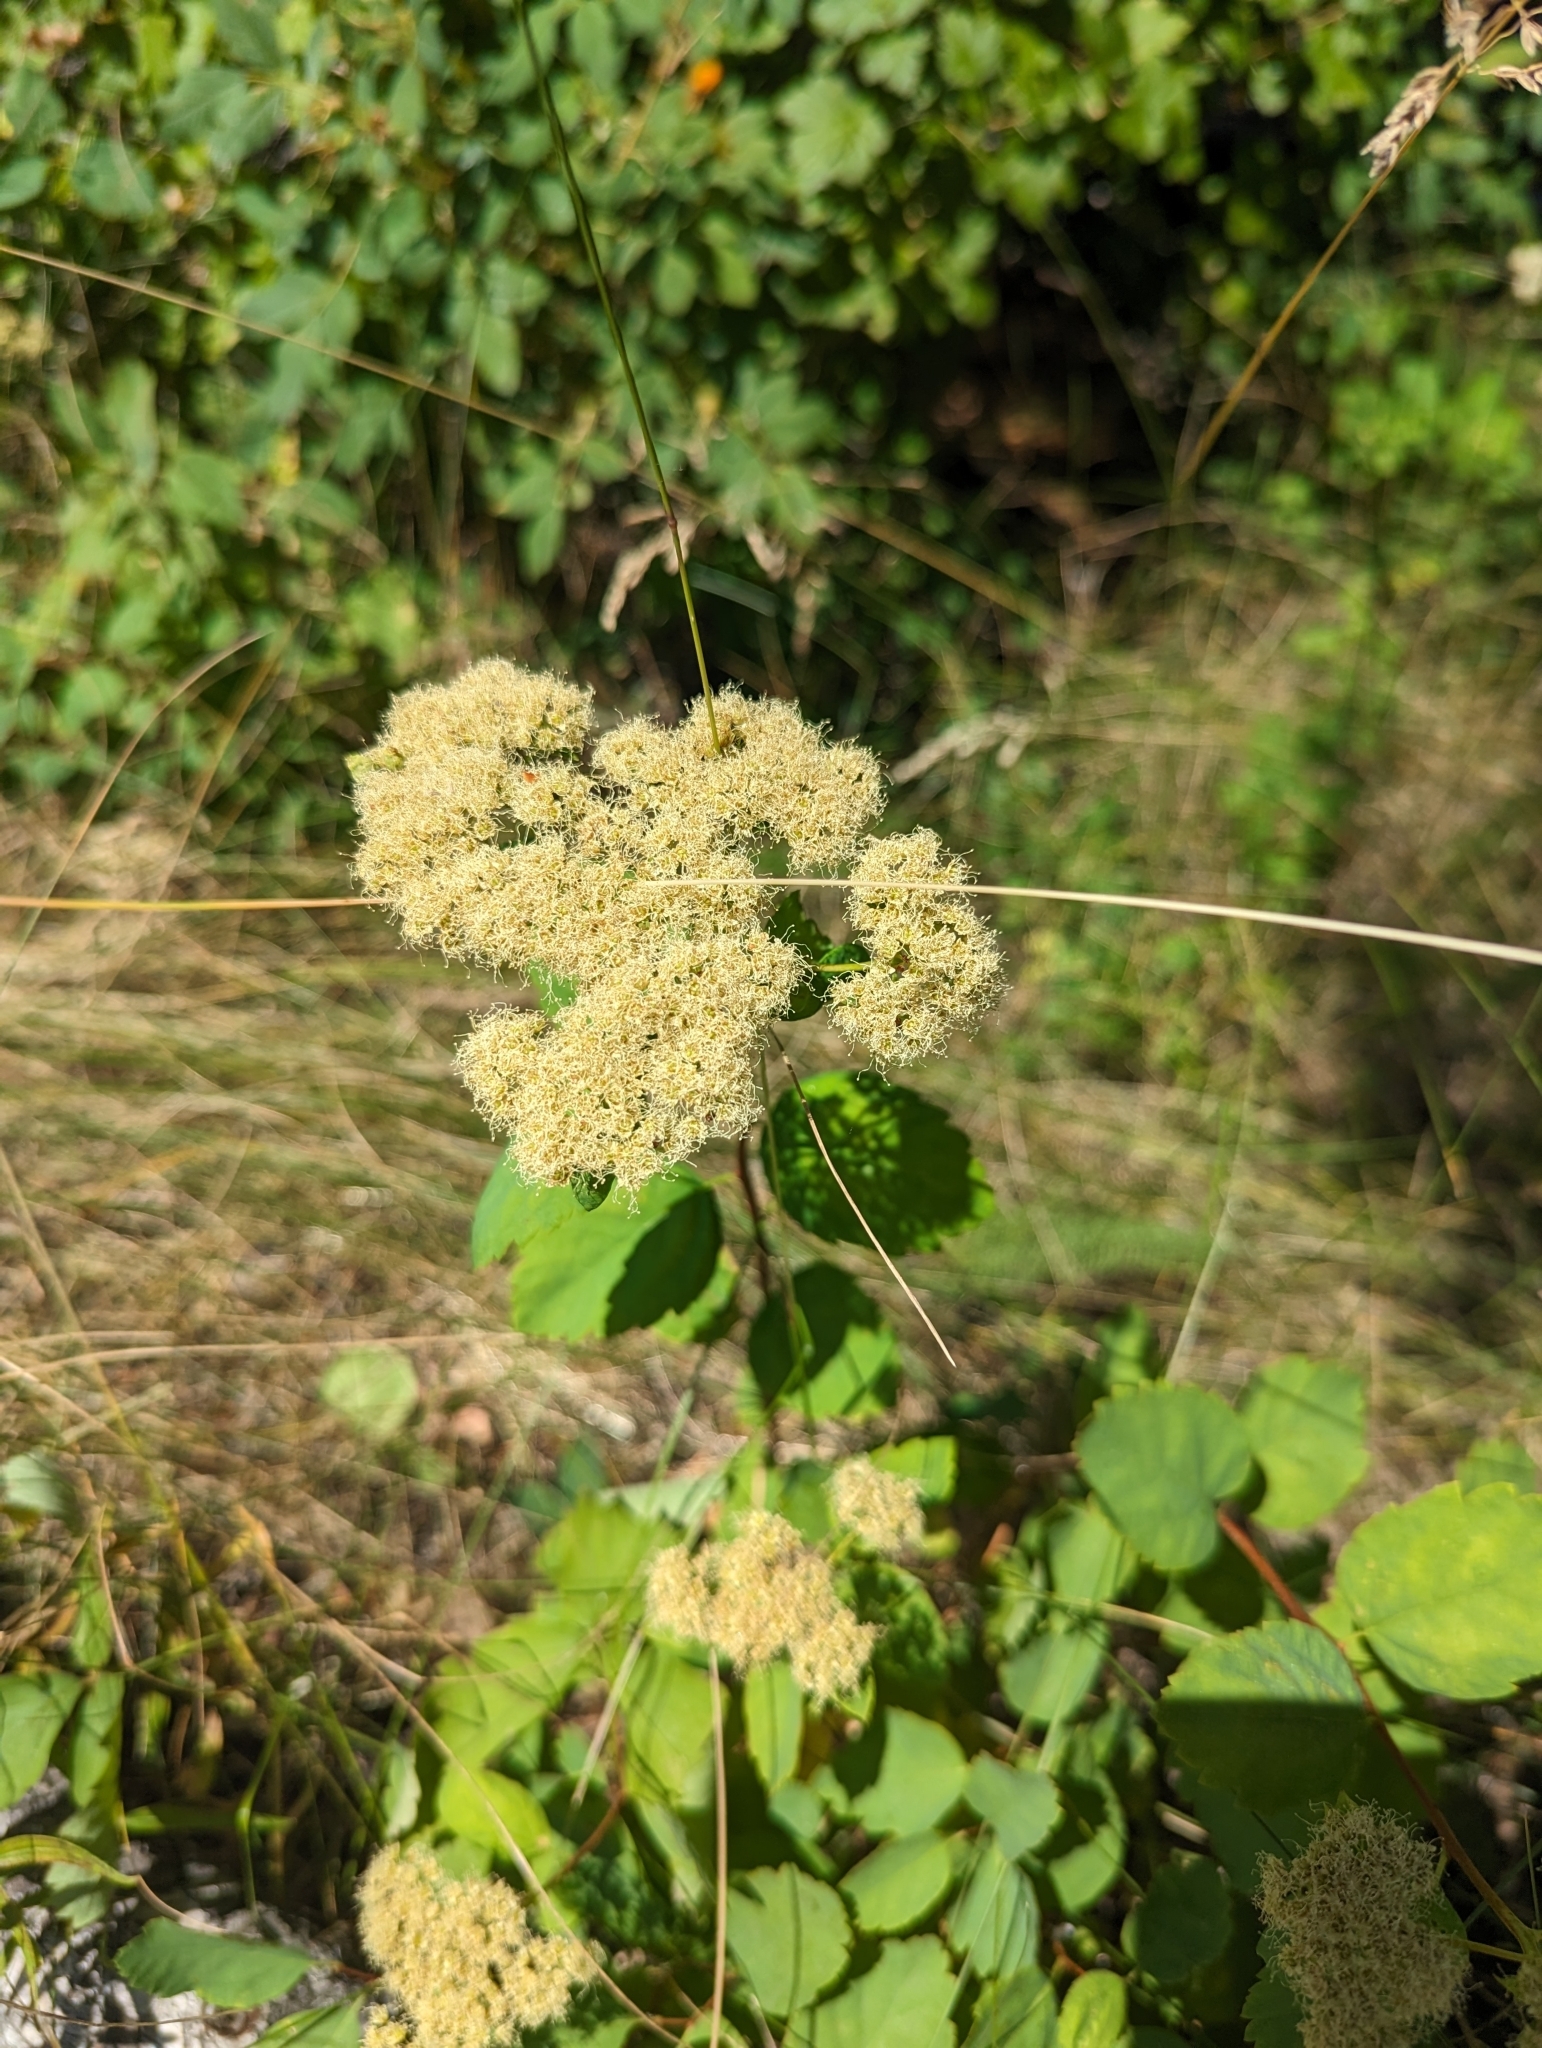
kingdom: Plantae
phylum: Tracheophyta
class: Magnoliopsida
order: Rosales
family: Rosaceae
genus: Spiraea
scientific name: Spiraea lucida
